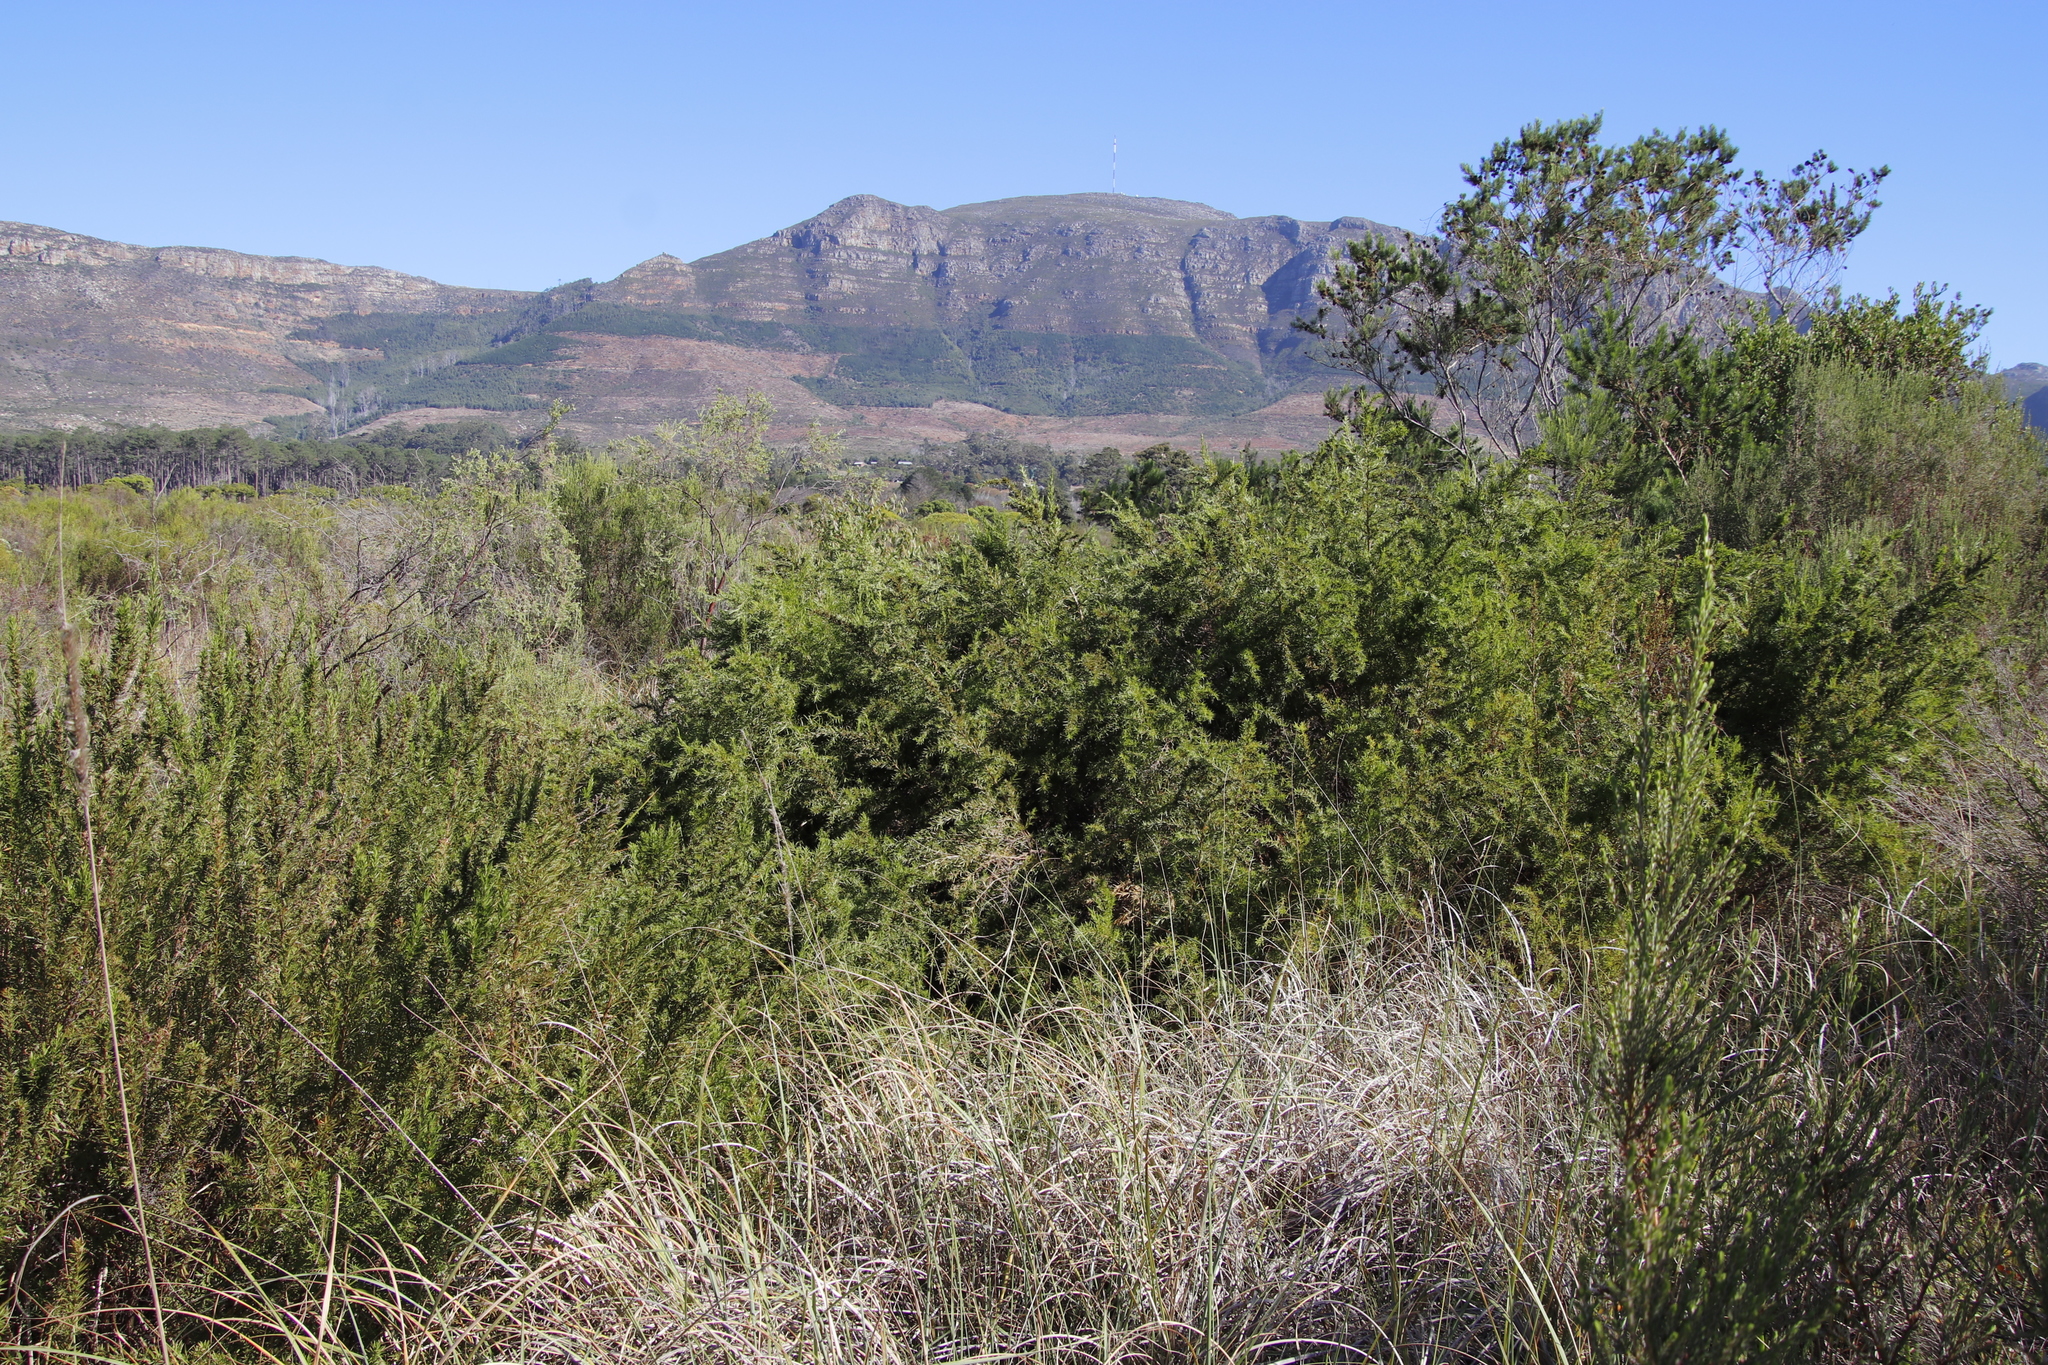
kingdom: Plantae
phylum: Tracheophyta
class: Magnoliopsida
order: Rosales
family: Rosaceae
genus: Cliffortia
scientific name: Cliffortia strobilifera
